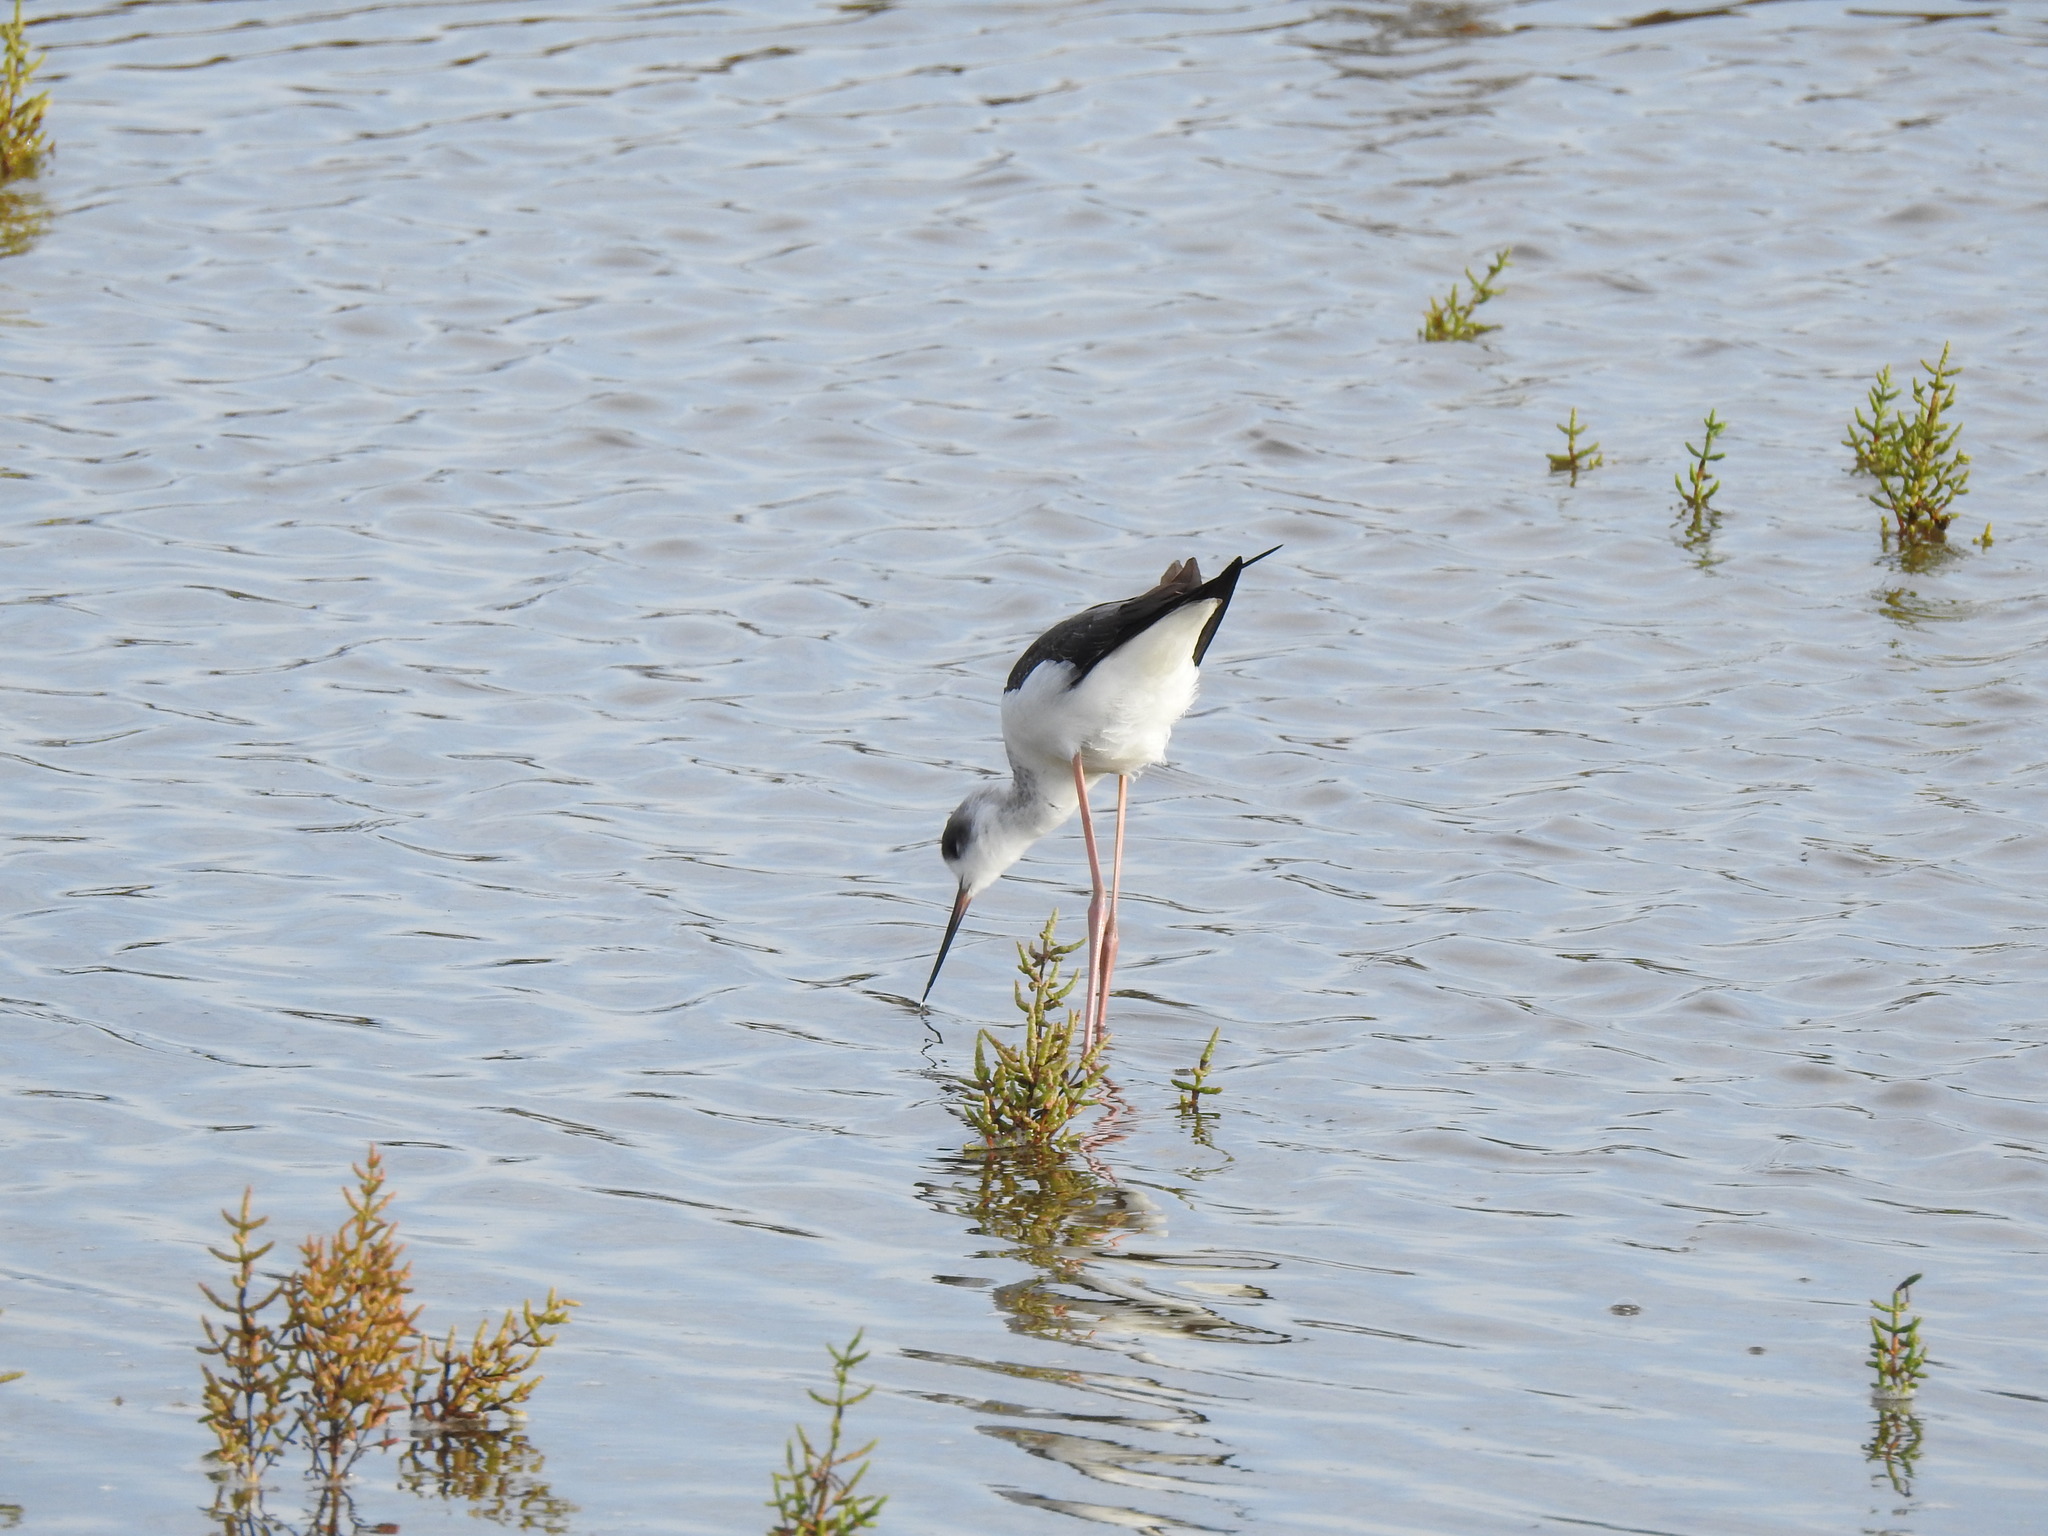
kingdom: Animalia
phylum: Chordata
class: Aves
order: Charadriiformes
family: Recurvirostridae
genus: Himantopus
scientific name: Himantopus himantopus
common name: Black-winged stilt
